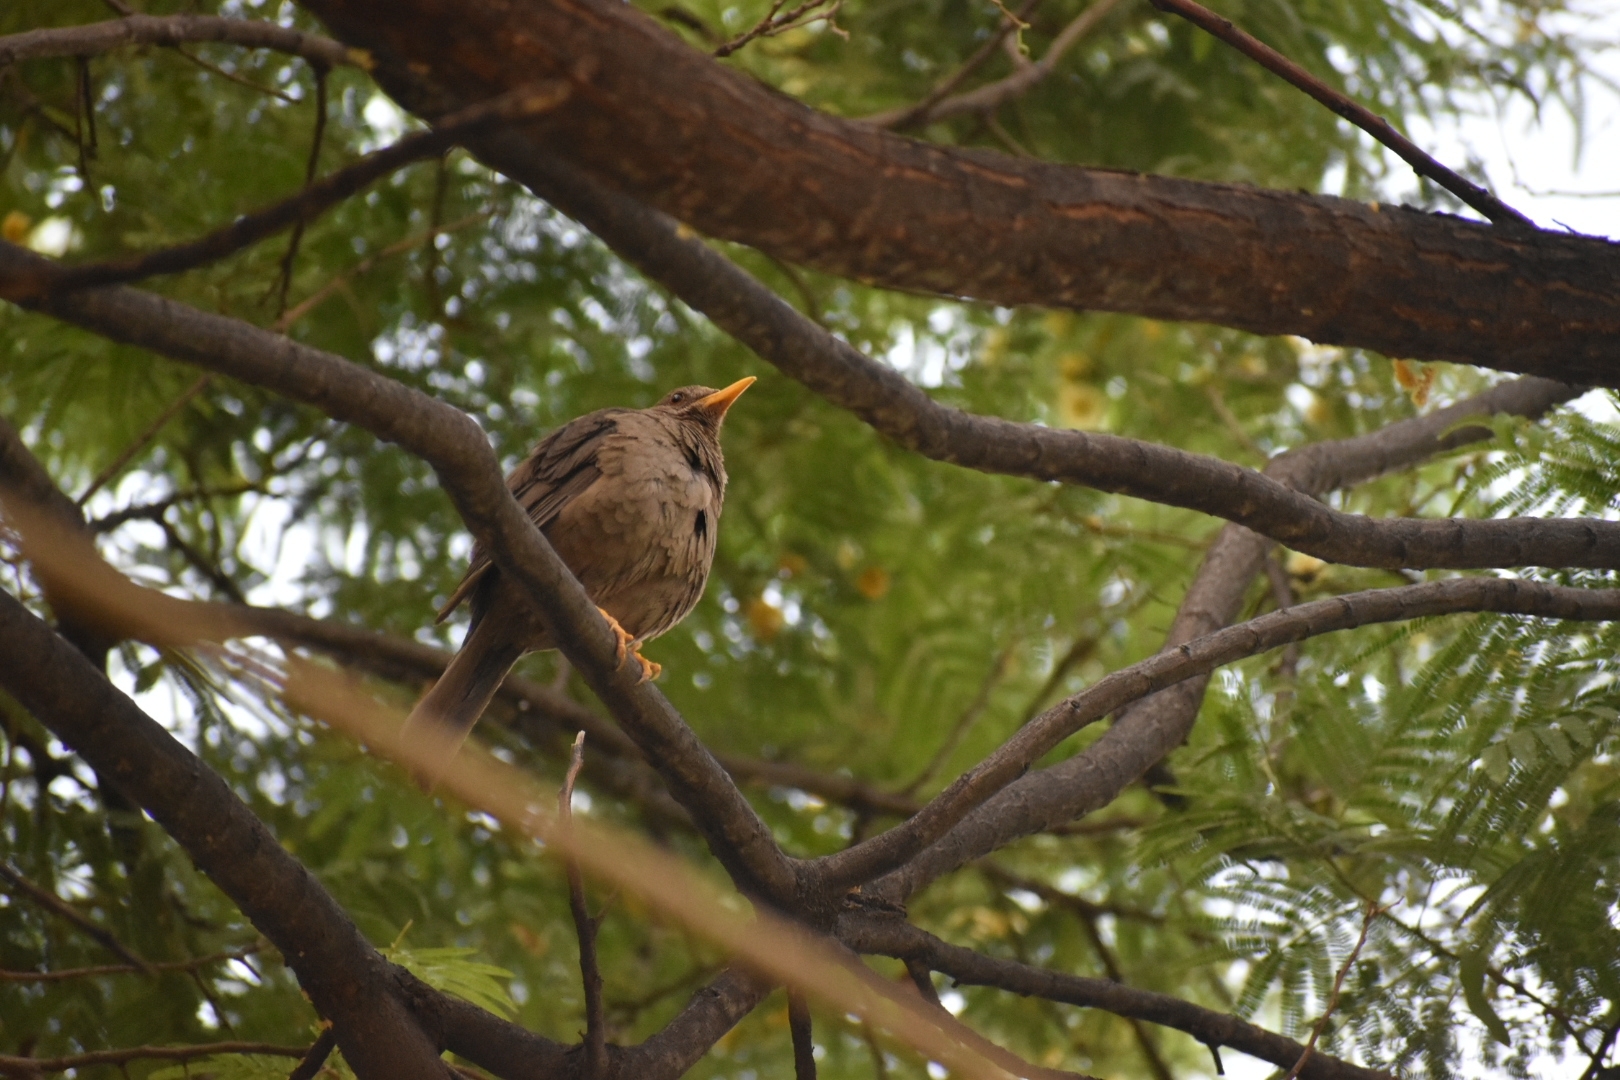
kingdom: Animalia
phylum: Chordata
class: Aves
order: Passeriformes
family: Turdidae
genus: Turdus
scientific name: Turdus chiguanco
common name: Chiguanco thrush
